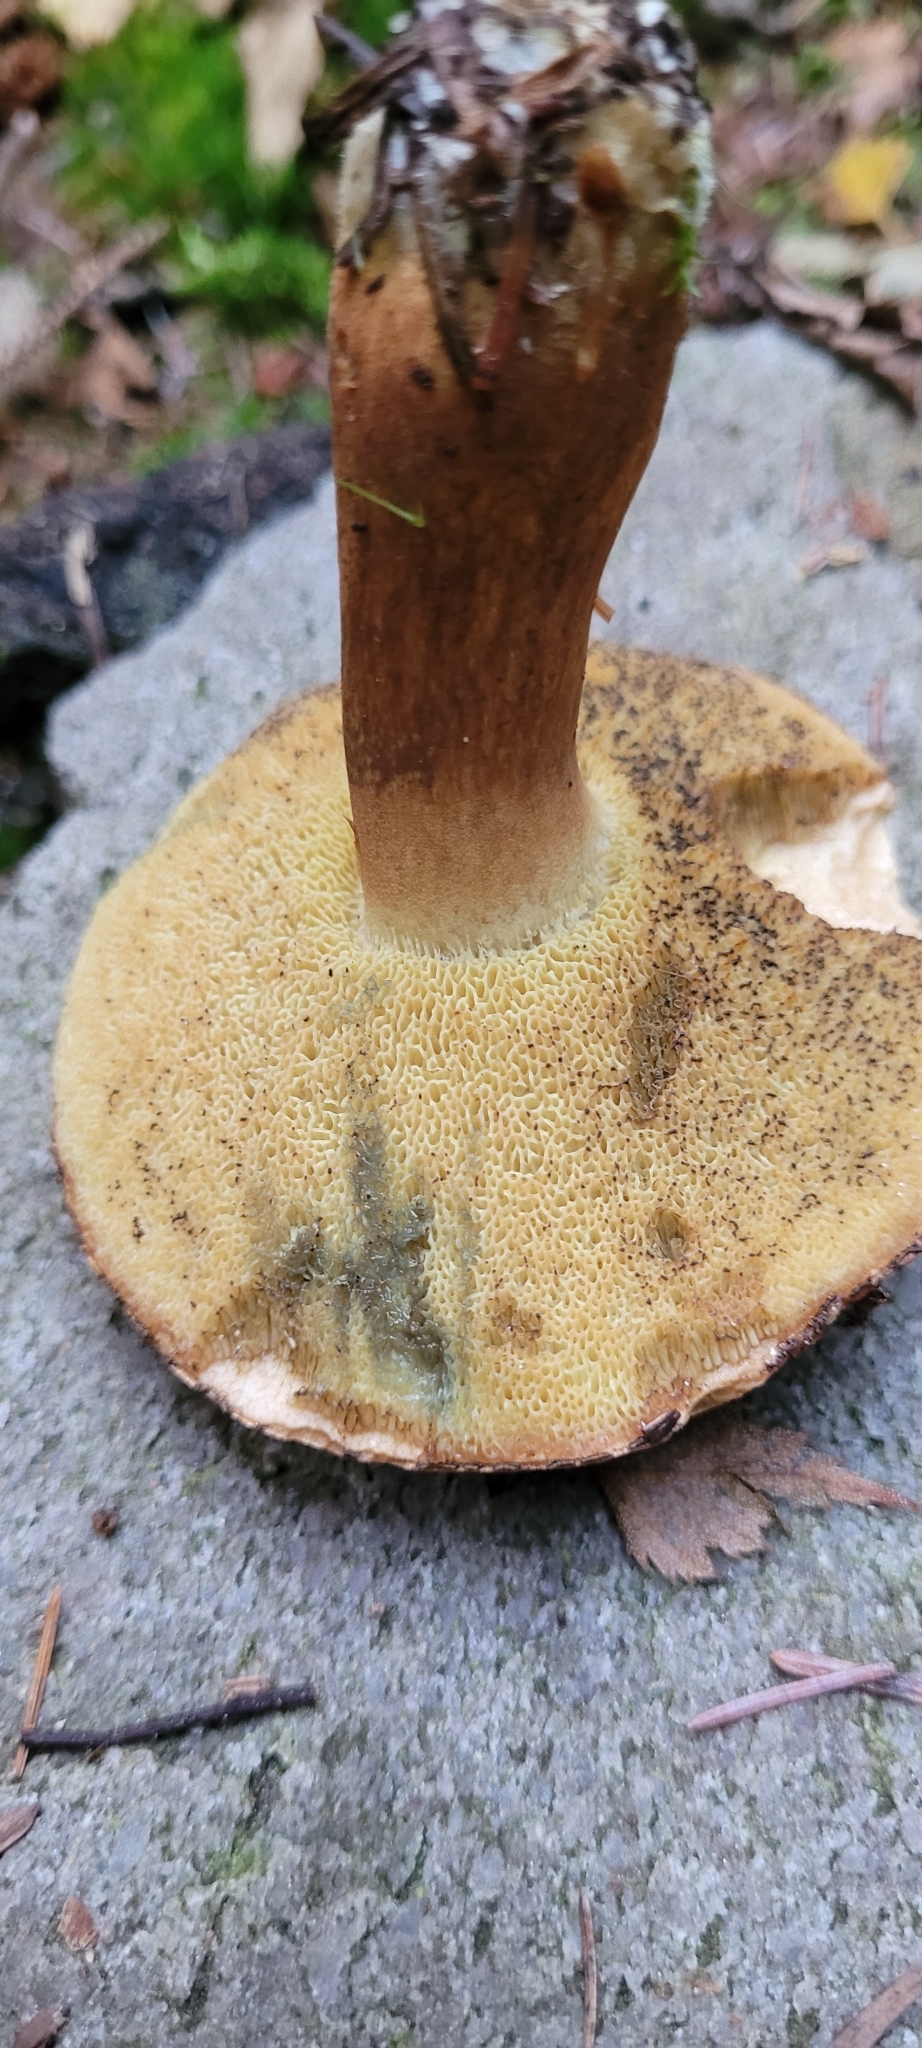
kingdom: Fungi
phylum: Basidiomycota
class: Agaricomycetes
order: Boletales
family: Boletaceae
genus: Imleria
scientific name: Imleria badia
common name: Bay bolete
